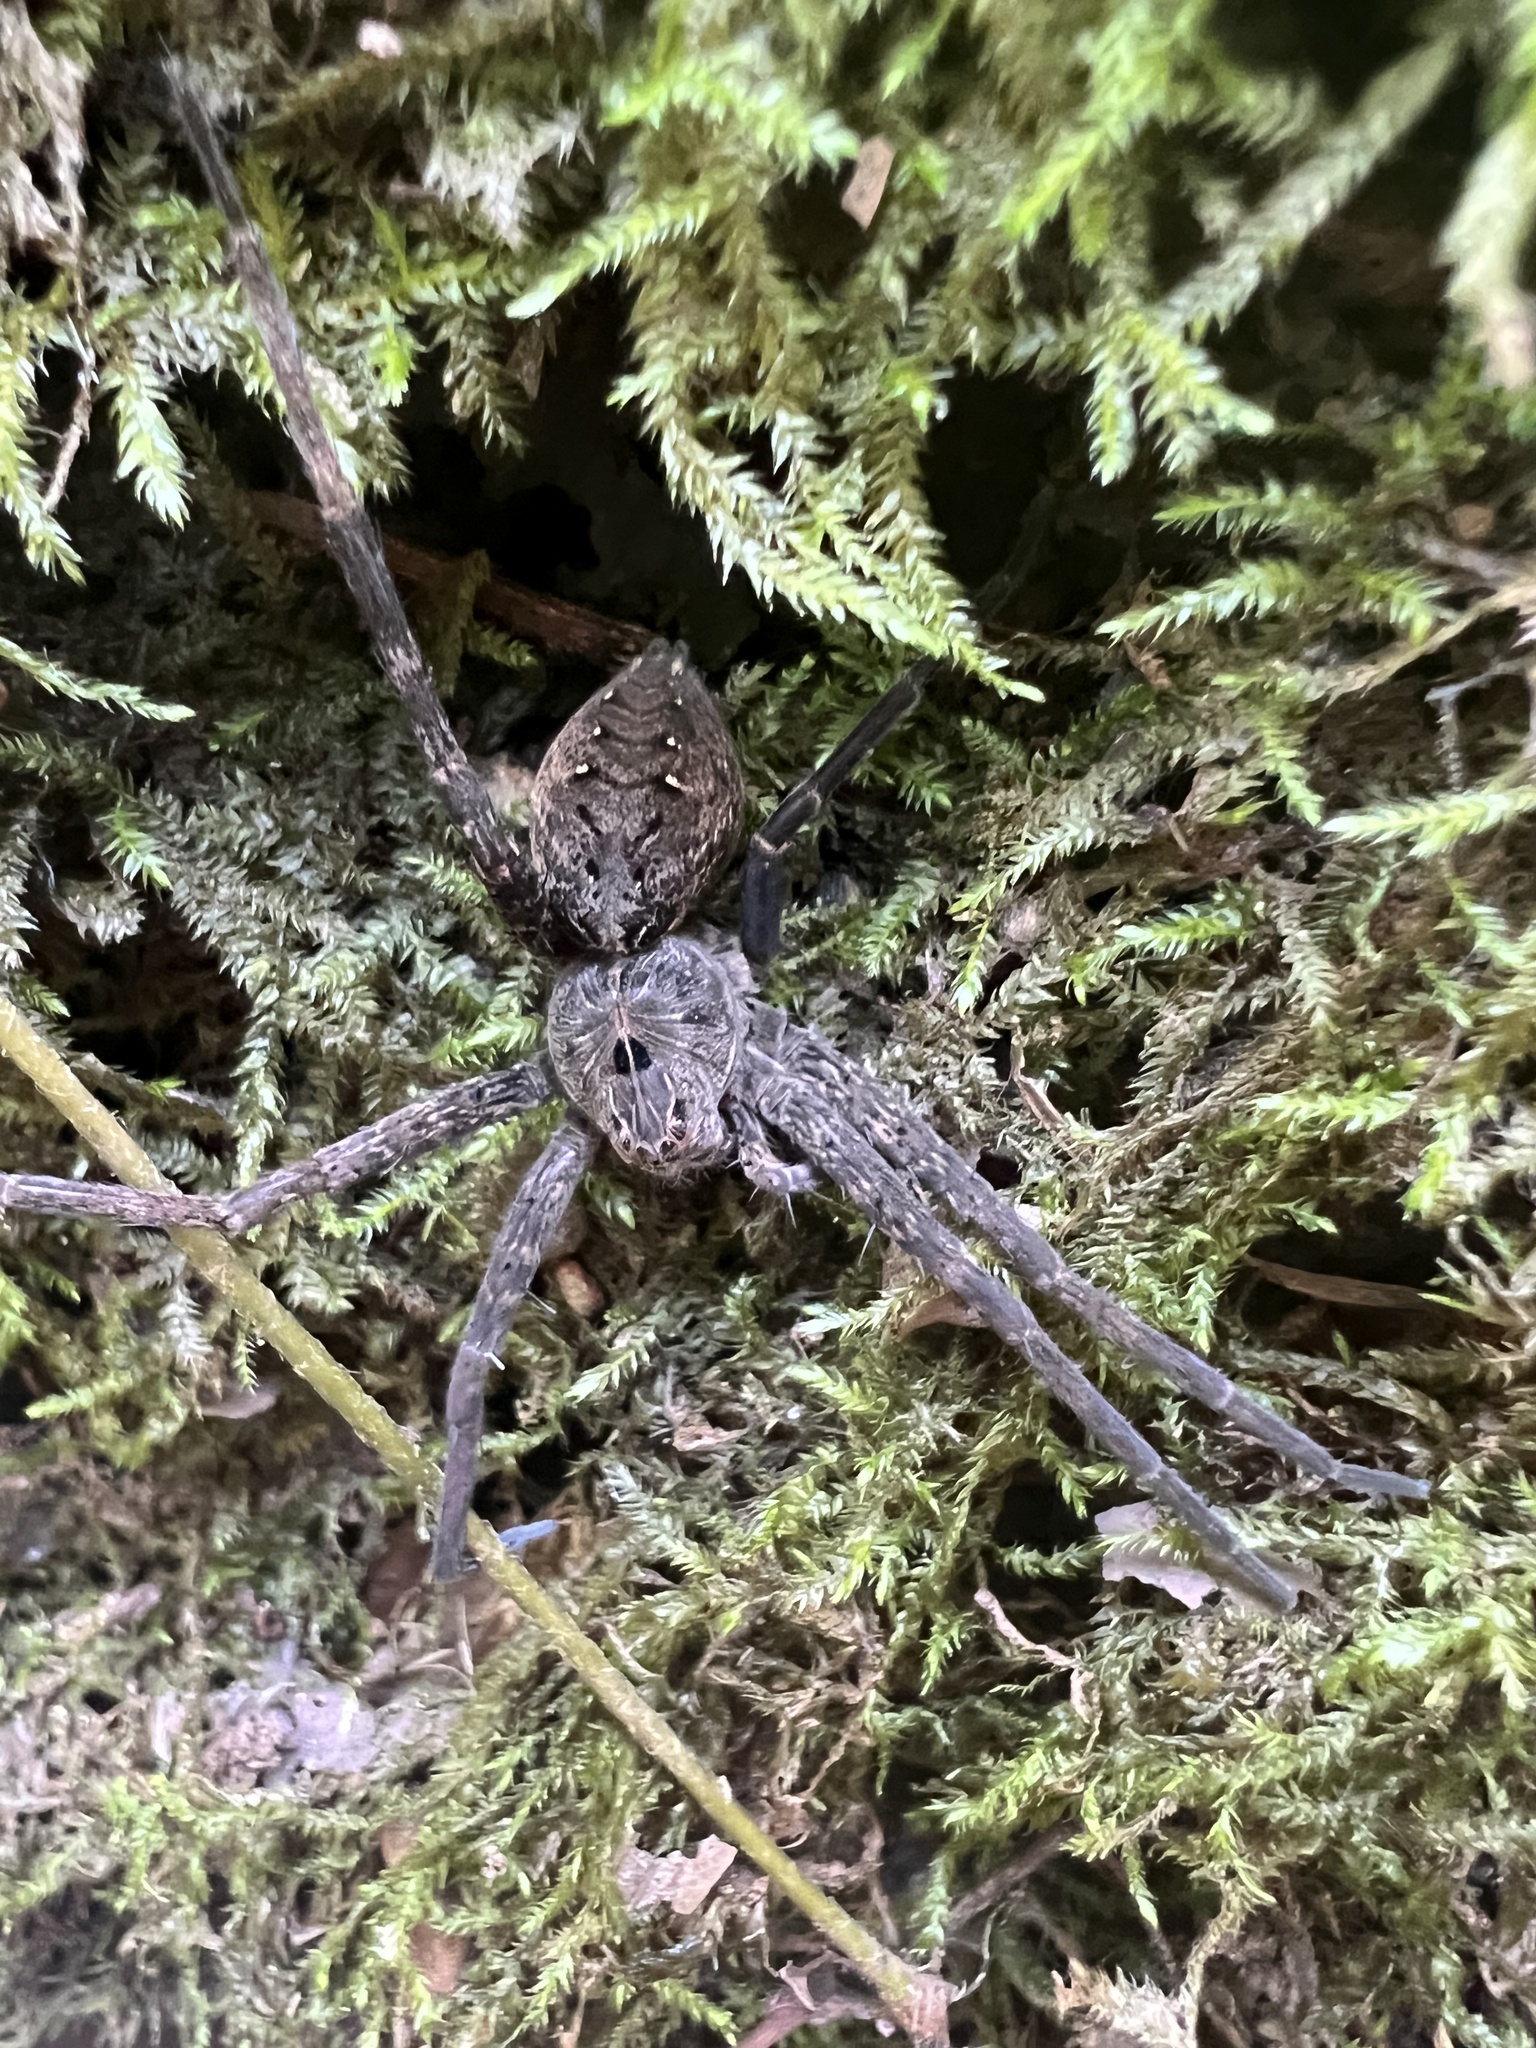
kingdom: Animalia
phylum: Arthropoda
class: Arachnida
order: Araneae
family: Pisauridae
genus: Dolomedes
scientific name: Dolomedes vittatus
